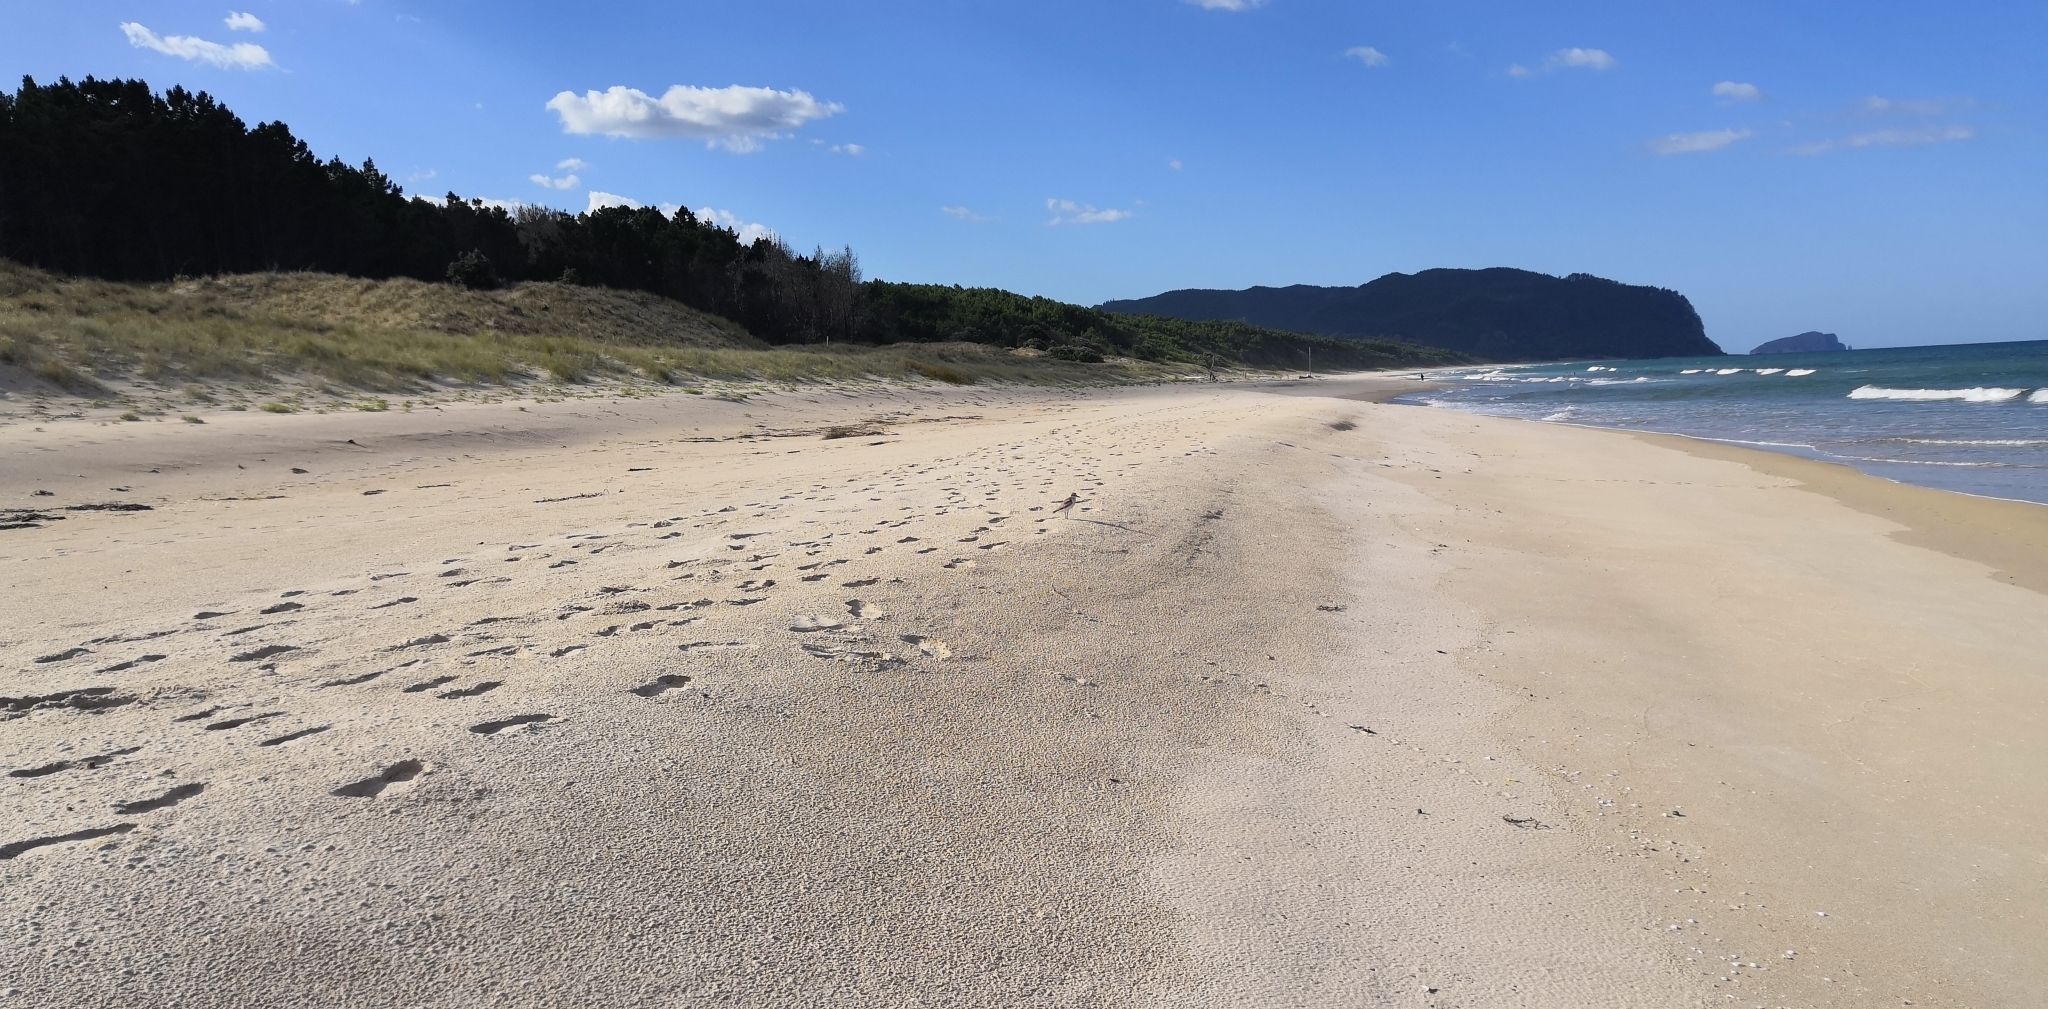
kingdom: Animalia
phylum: Chordata
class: Aves
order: Charadriiformes
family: Charadriidae
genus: Anarhynchus
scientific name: Anarhynchus
